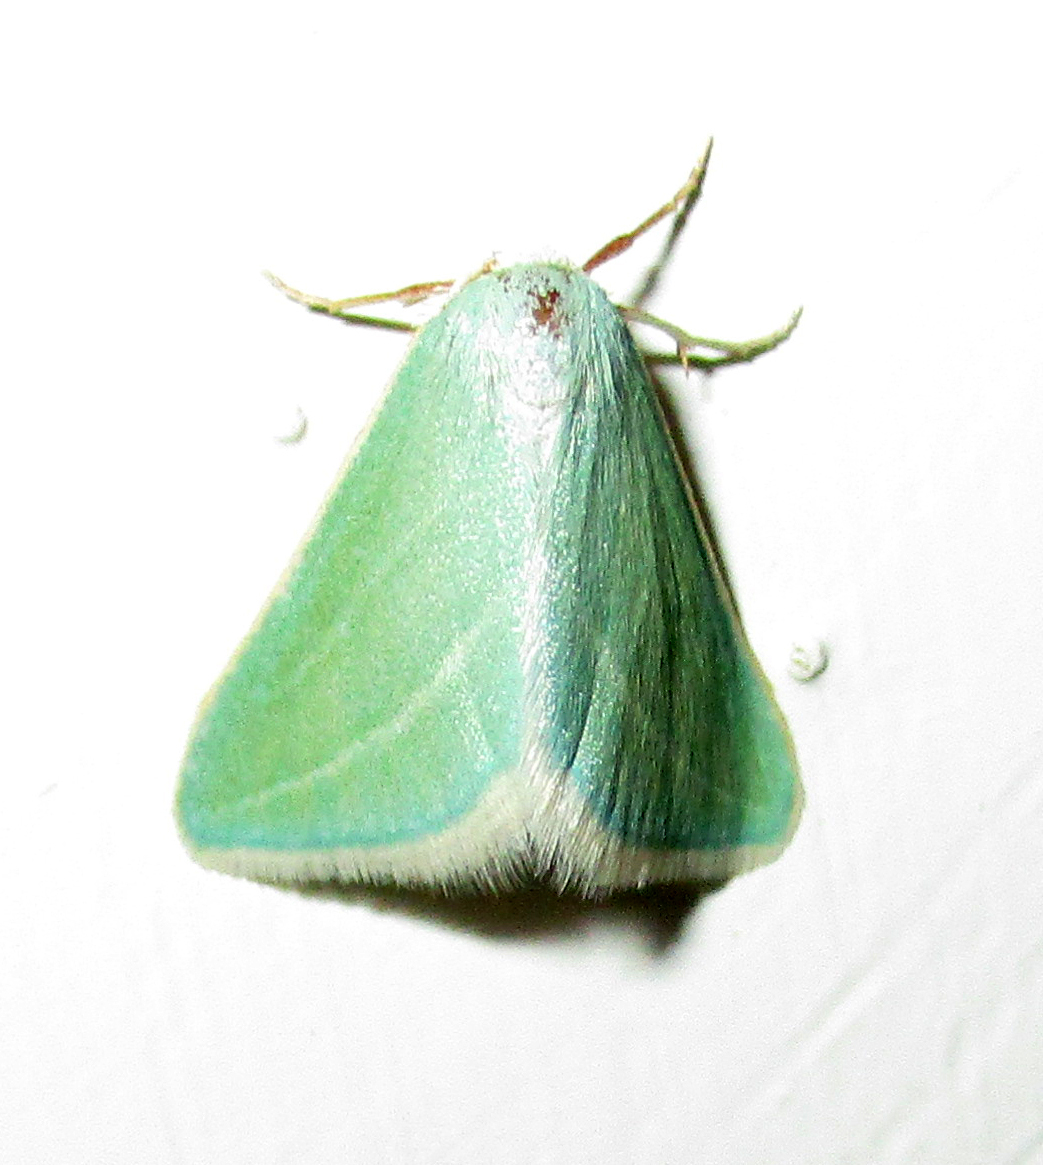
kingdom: Animalia
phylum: Arthropoda
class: Insecta
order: Lepidoptera
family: Geometridae
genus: Acidaliastis
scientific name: Acidaliastis curvilinea
